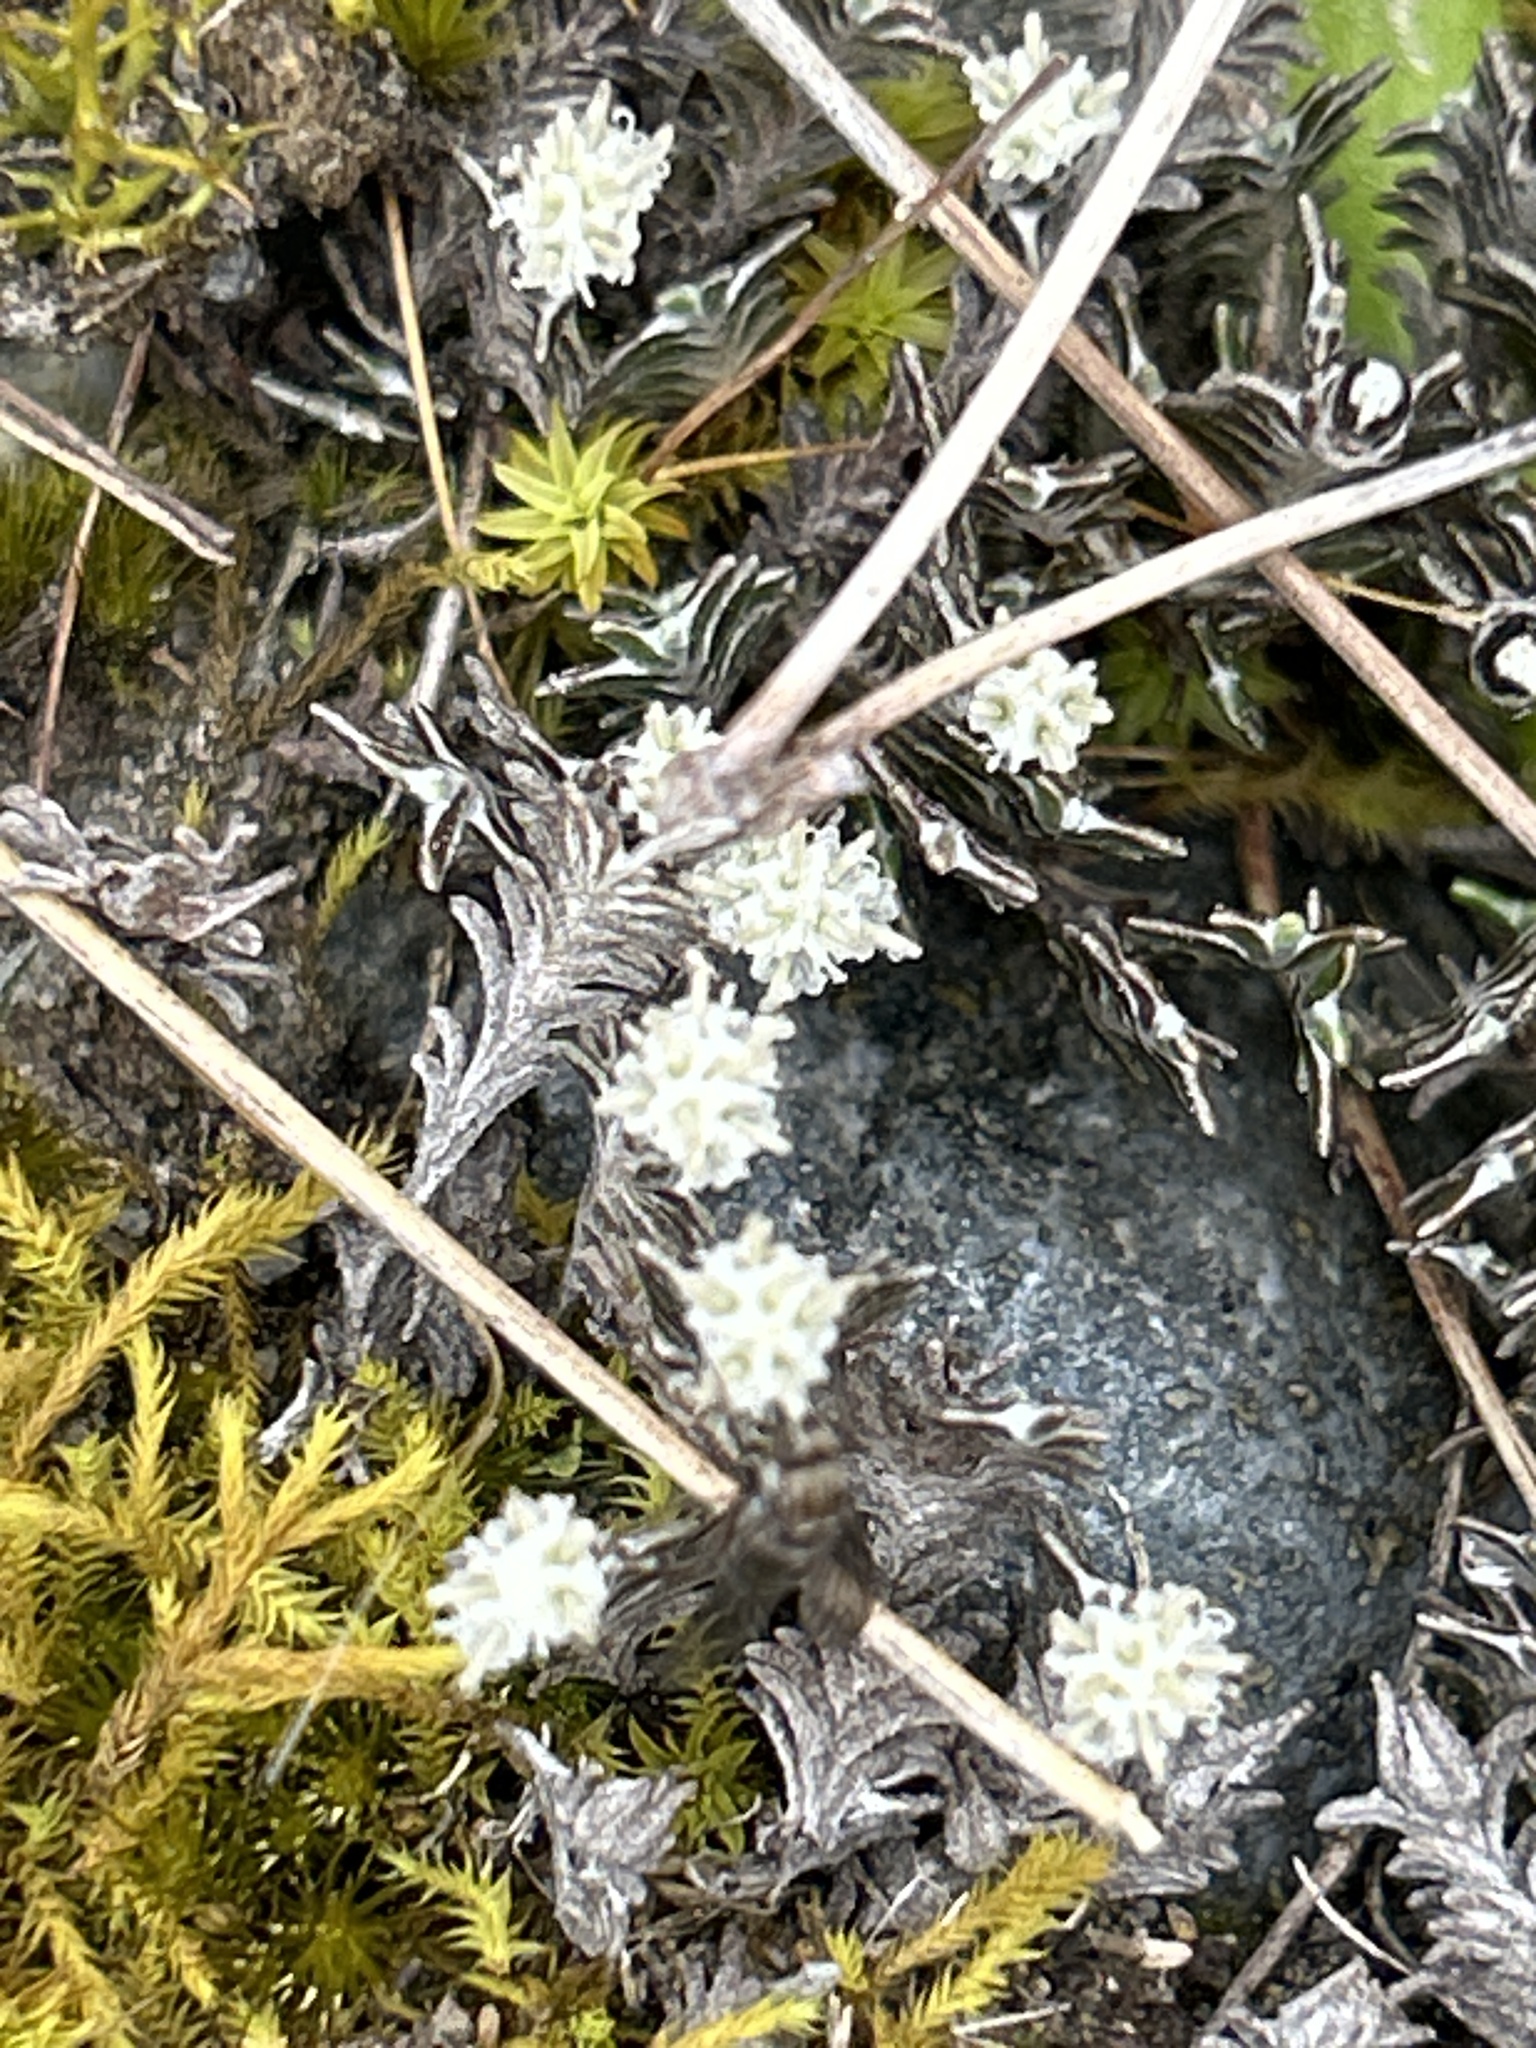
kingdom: Plantae
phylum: Tracheophyta
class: Magnoliopsida
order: Asterales
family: Asteraceae
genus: Raoulia
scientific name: Raoulia monroi
